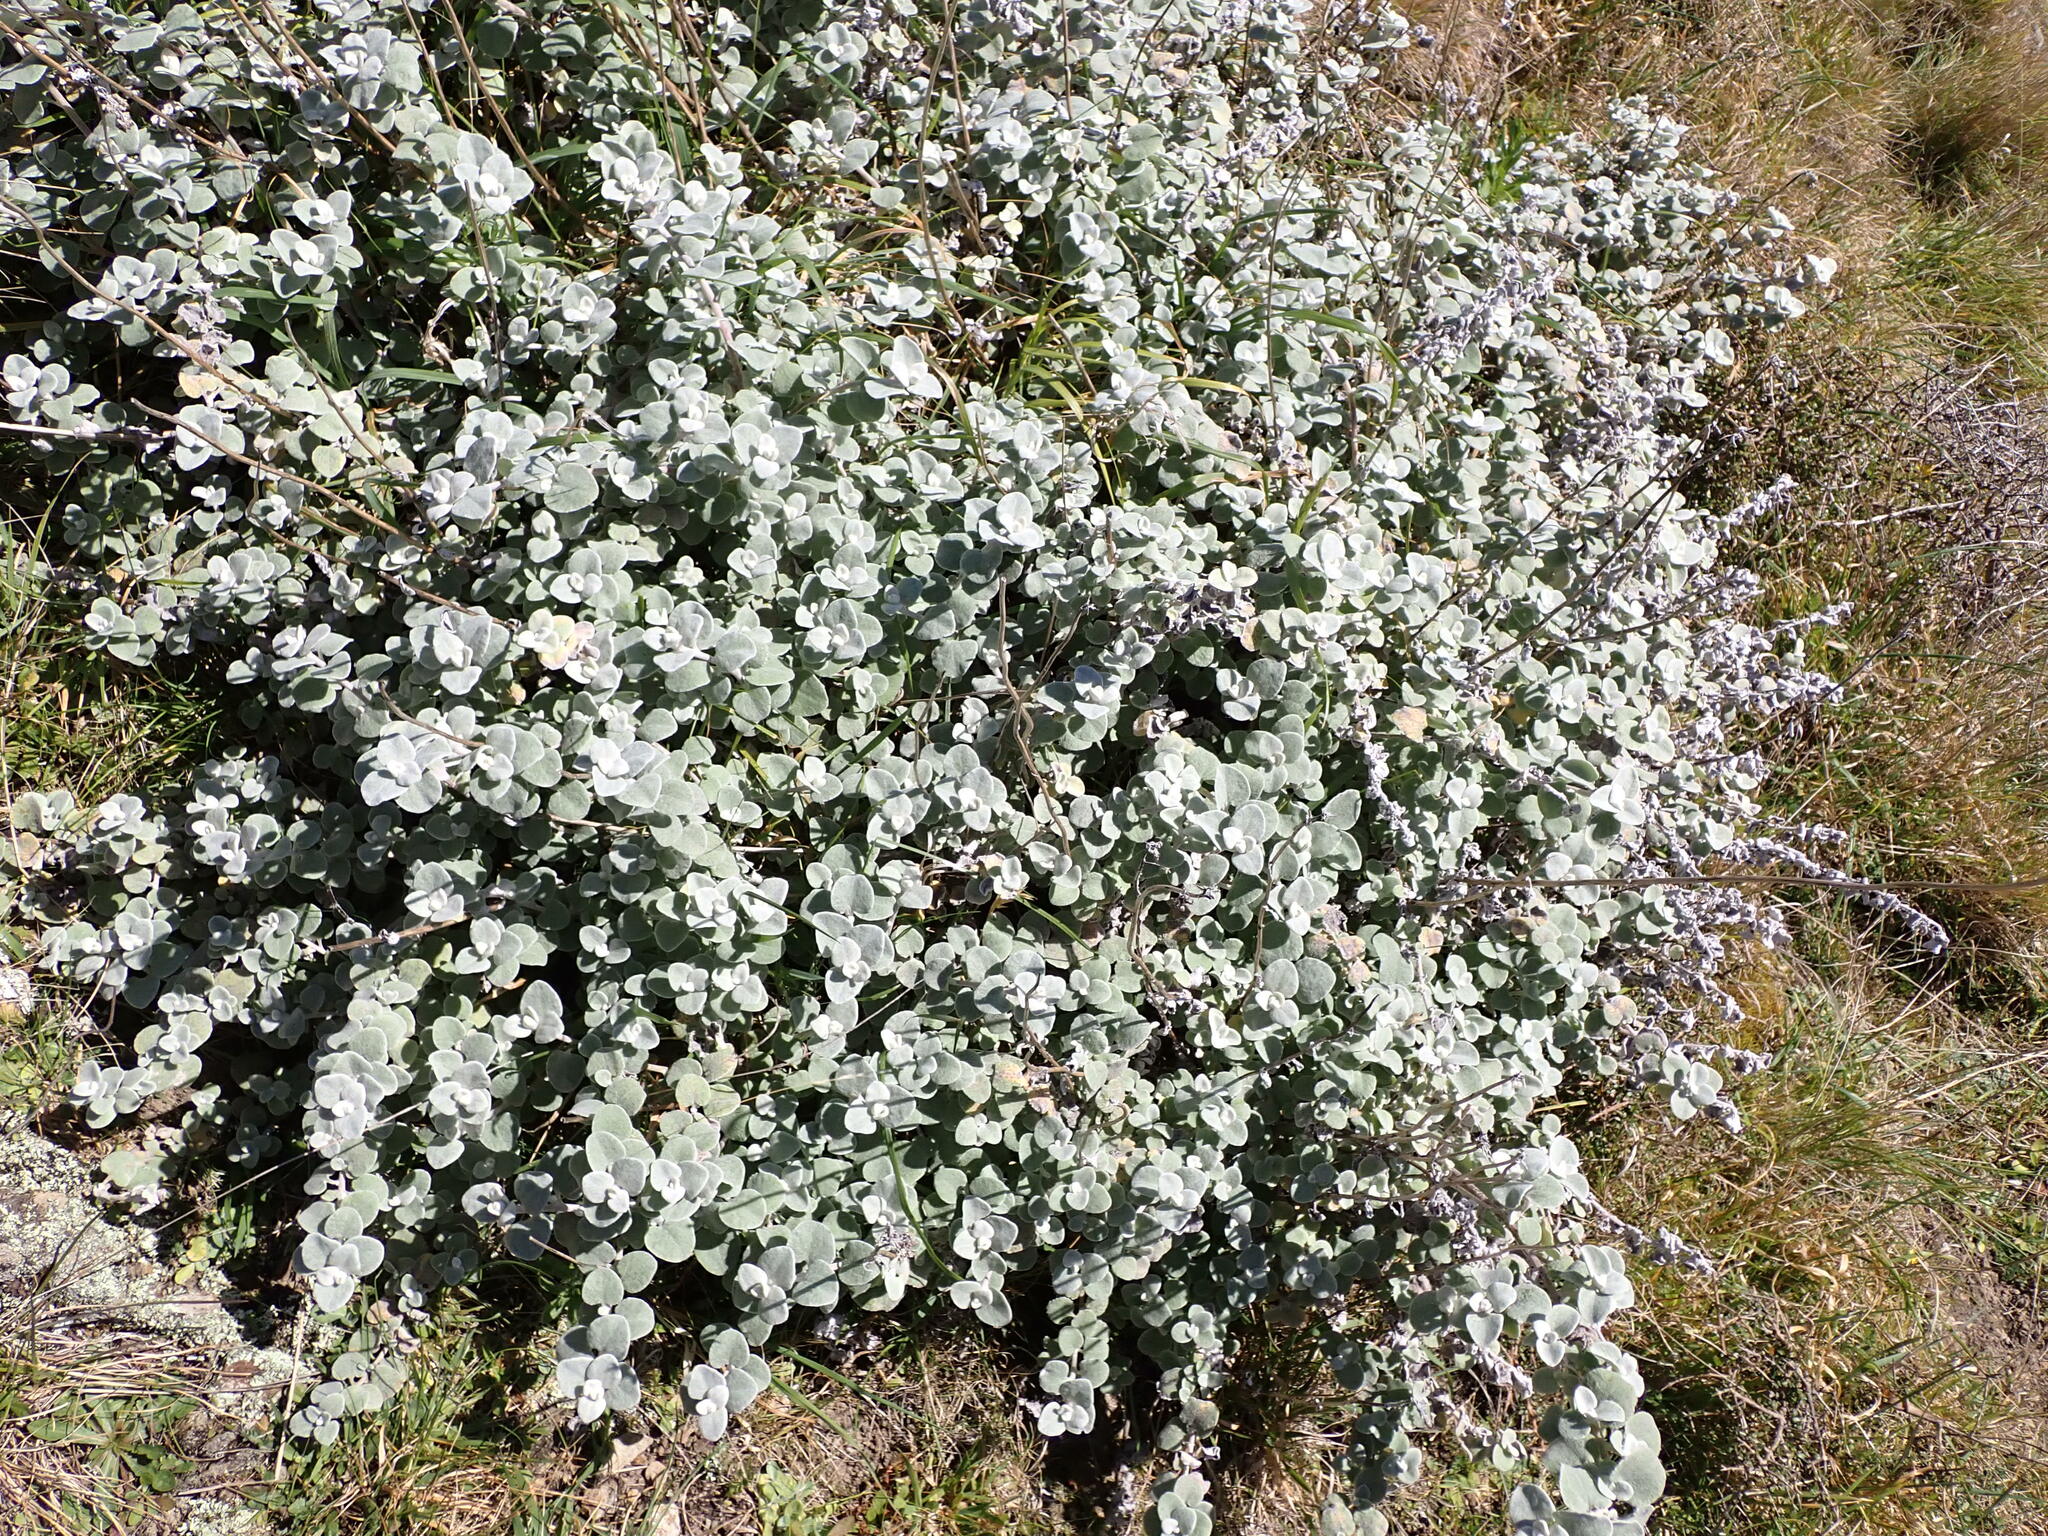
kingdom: Plantae
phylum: Tracheophyta
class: Magnoliopsida
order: Asterales
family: Asteraceae
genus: Helichrysum
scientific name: Helichrysum petiolare
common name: Licorice-plant
